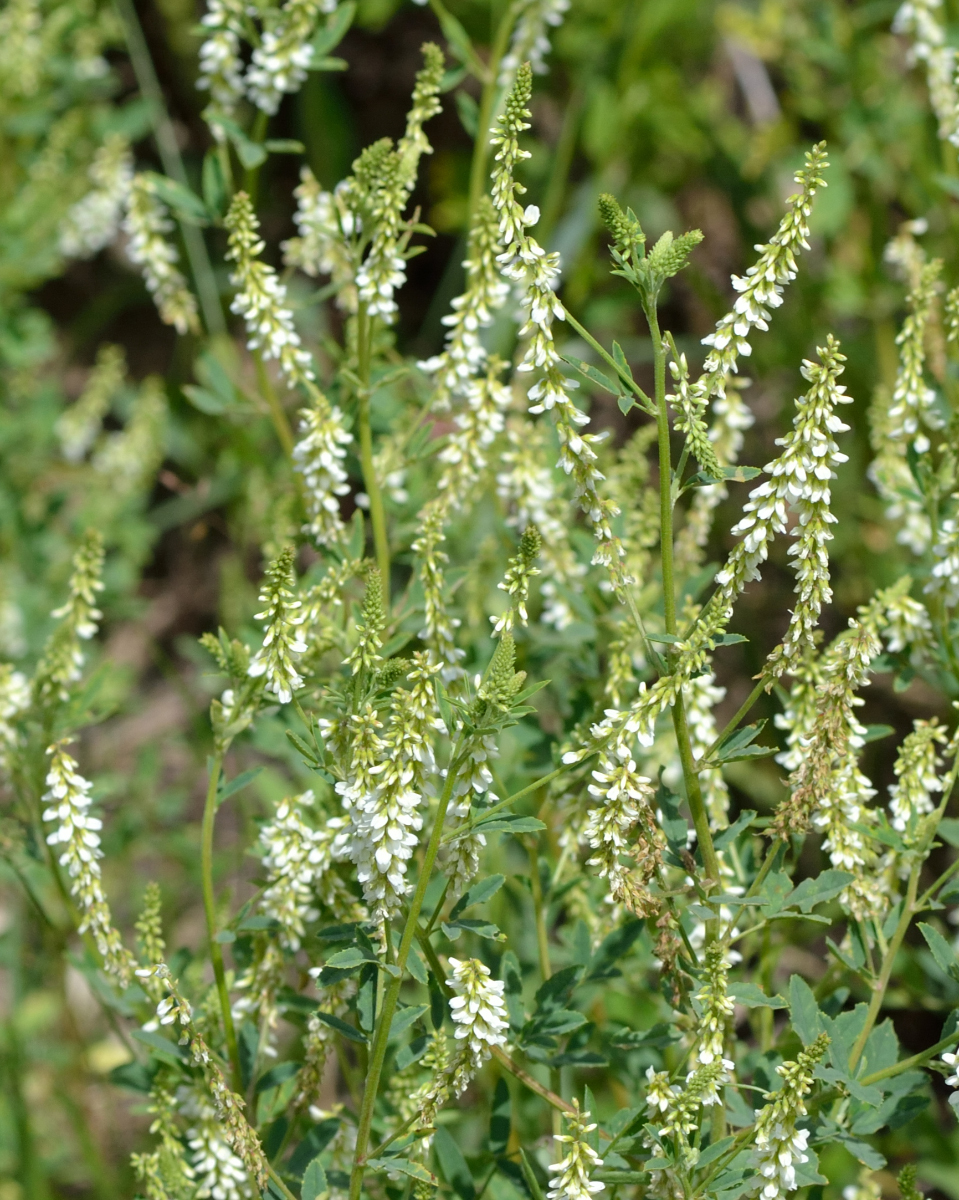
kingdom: Plantae
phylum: Tracheophyta
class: Magnoliopsida
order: Fabales
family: Fabaceae
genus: Melilotus
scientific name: Melilotus albus
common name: White melilot
